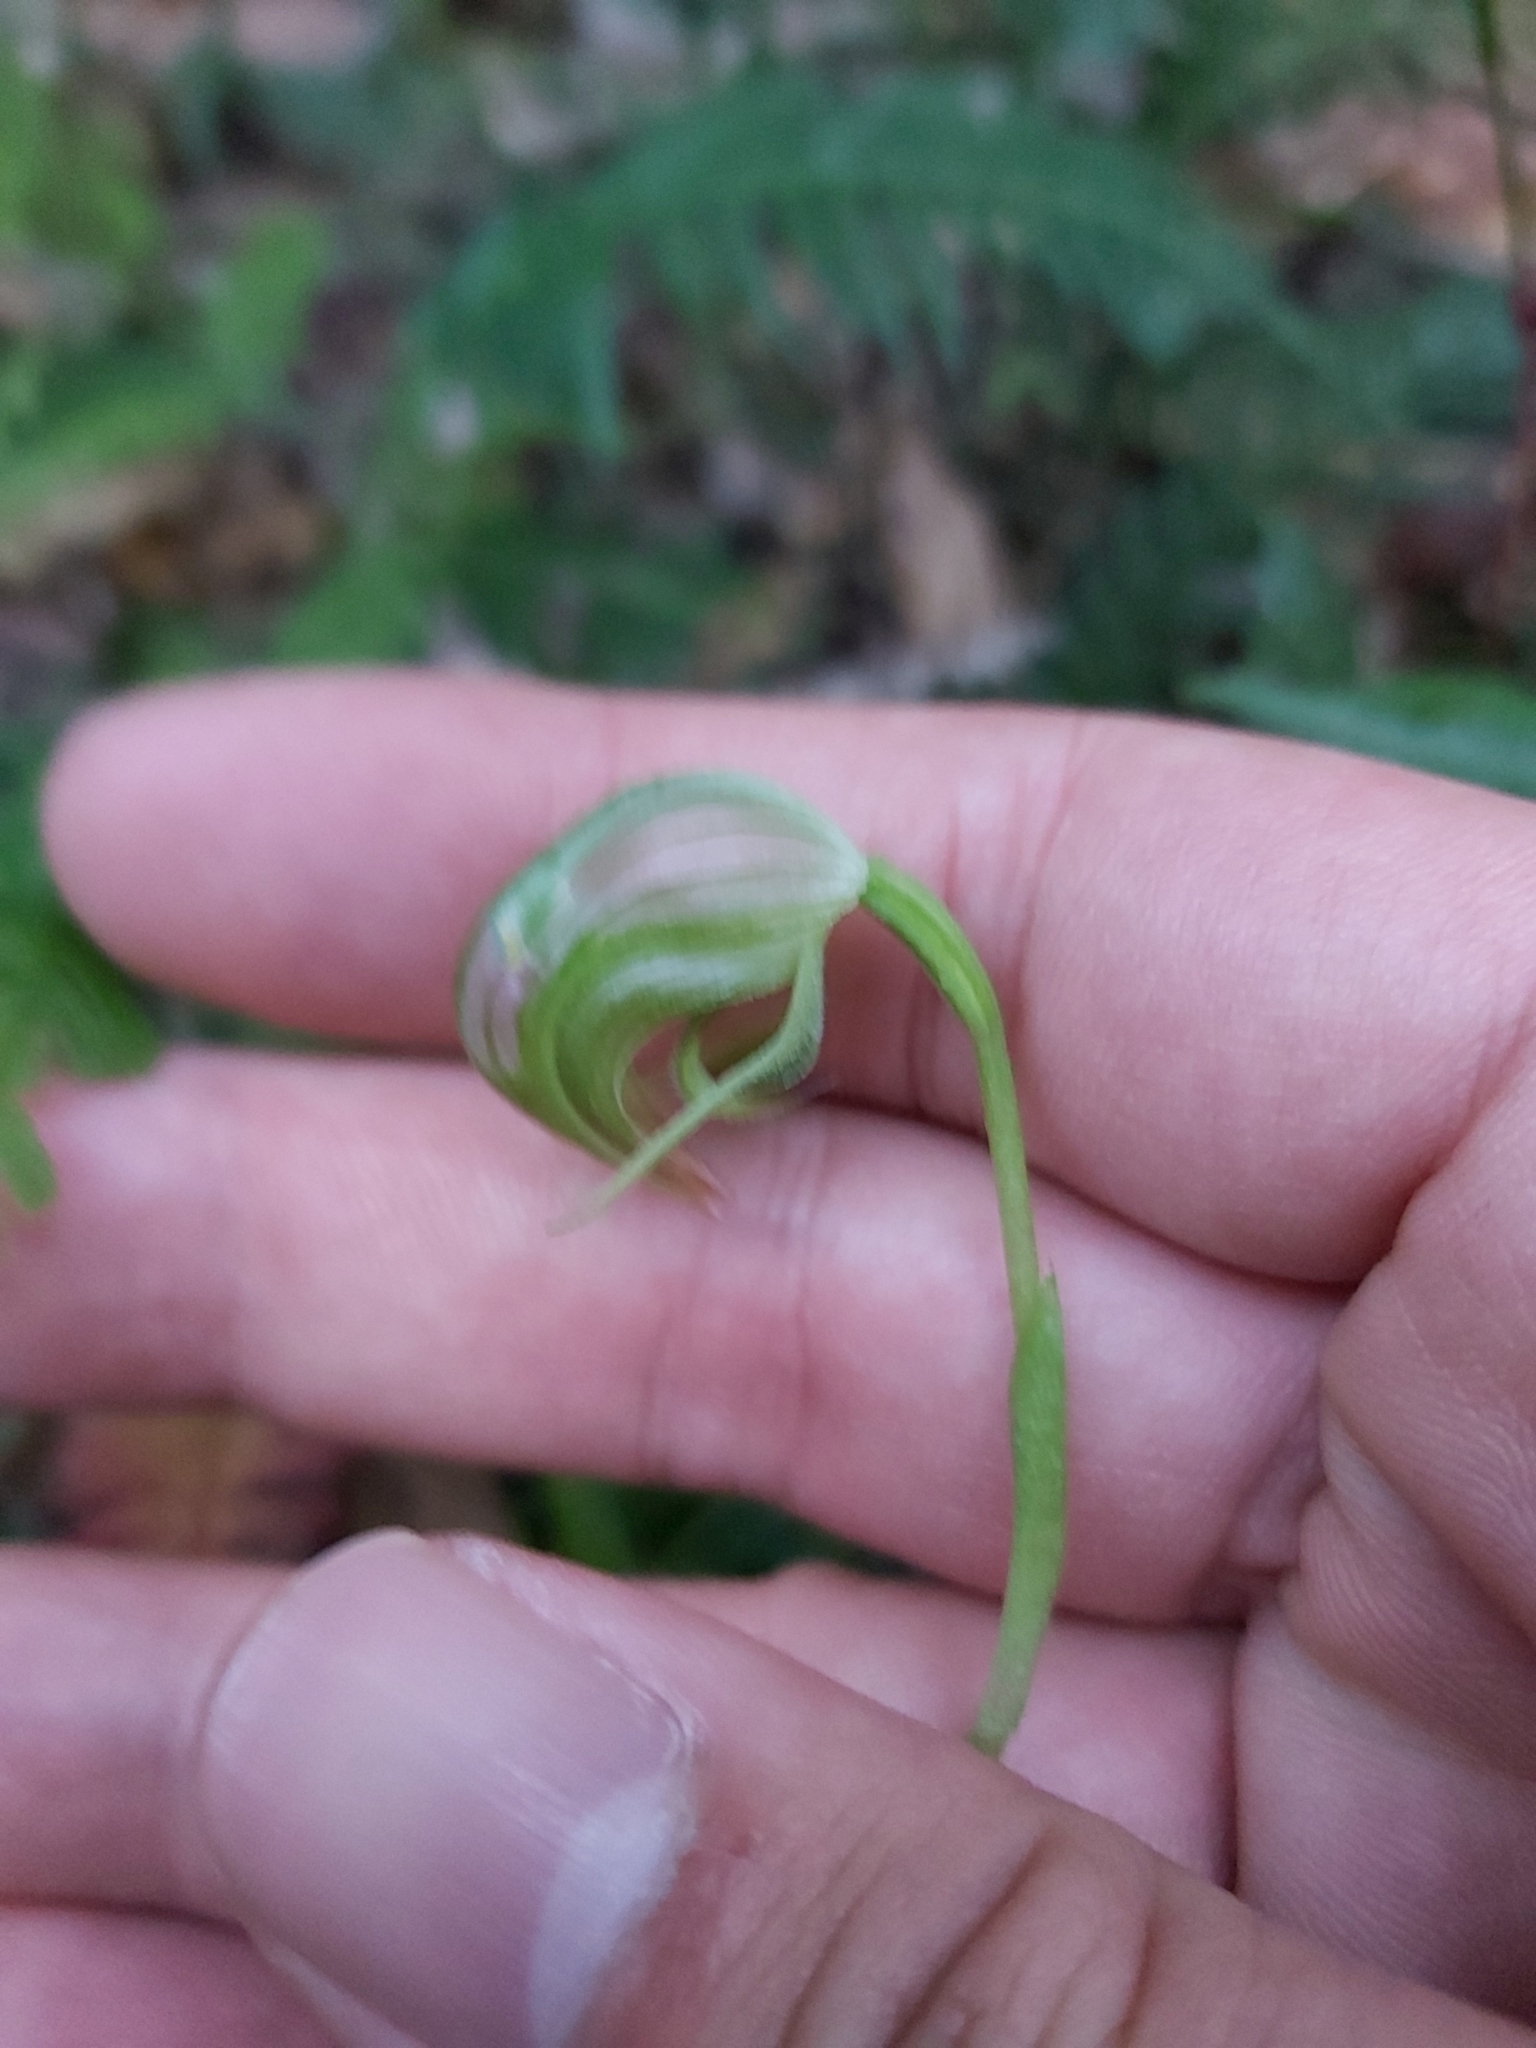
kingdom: Plantae
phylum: Tracheophyta
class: Liliopsida
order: Asparagales
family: Orchidaceae
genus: Pterostylis
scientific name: Pterostylis nutans
